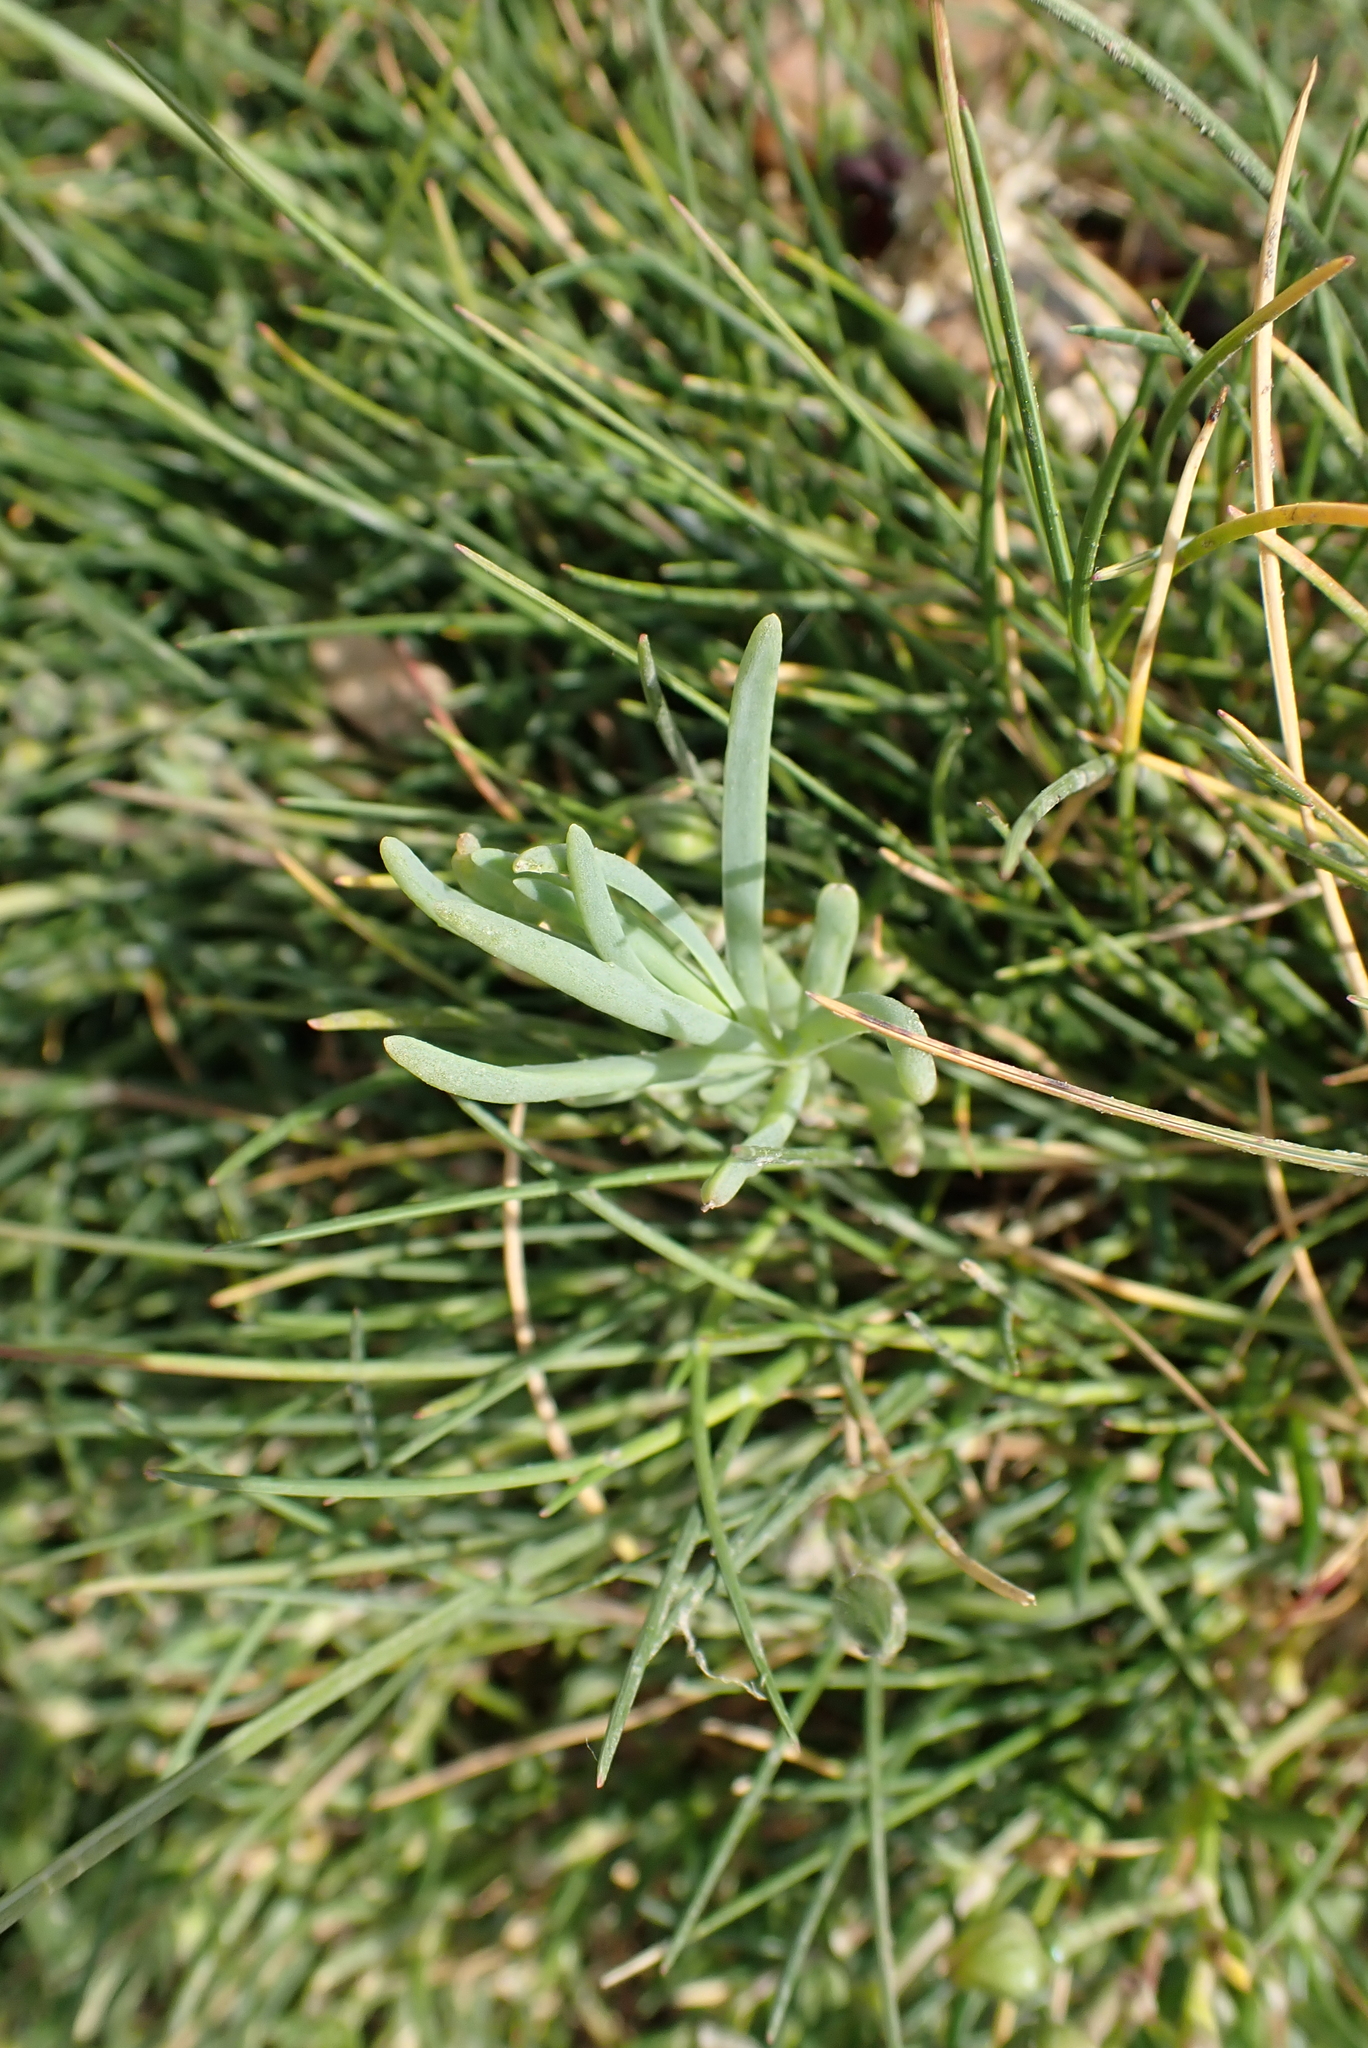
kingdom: Plantae
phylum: Tracheophyta
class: Magnoliopsida
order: Caryophyllales
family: Amaranthaceae
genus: Suaeda
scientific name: Suaeda maritima
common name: Annual sea-blite
